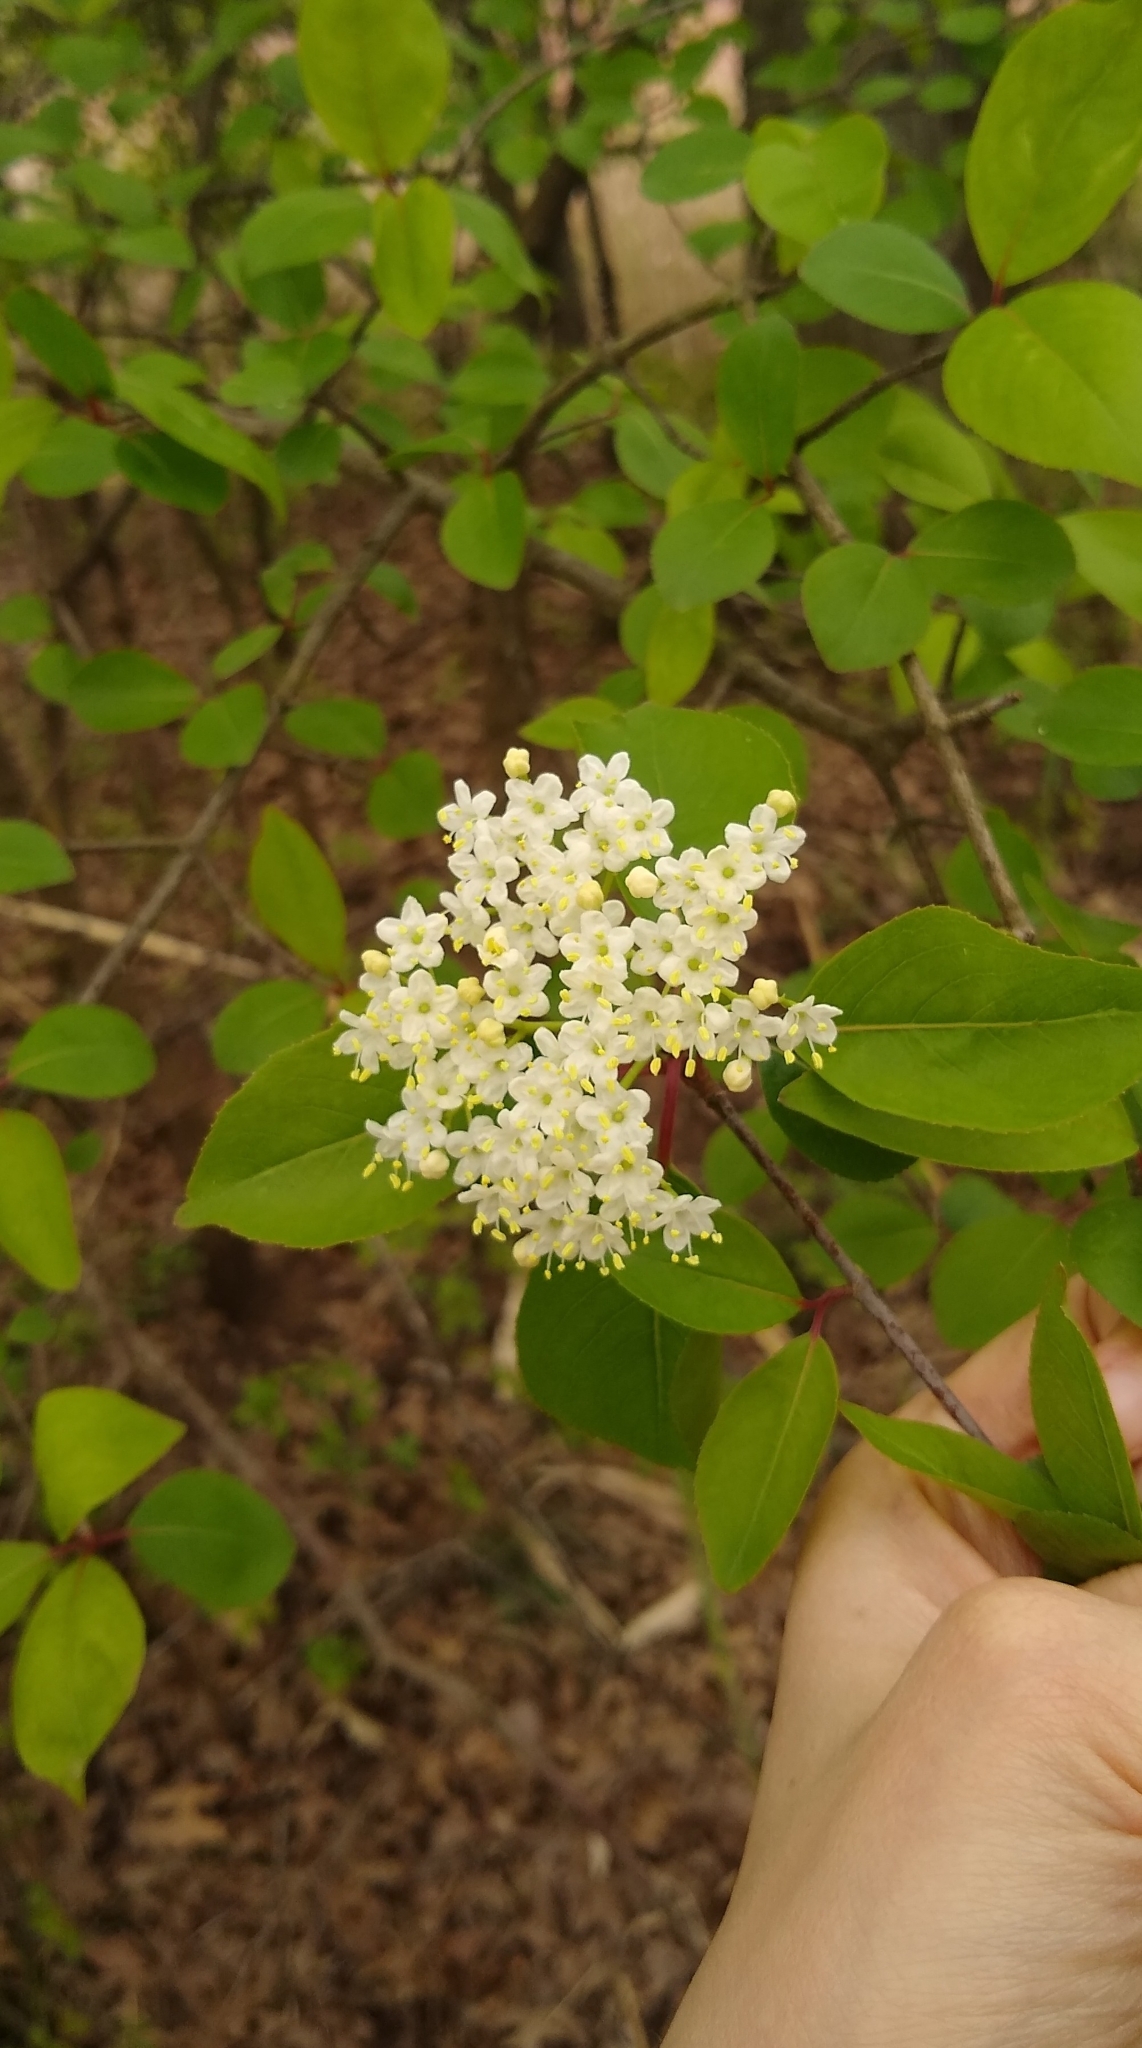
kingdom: Plantae
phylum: Tracheophyta
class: Magnoliopsida
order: Dipsacales
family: Viburnaceae
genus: Viburnum
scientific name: Viburnum prunifolium
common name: Black haw
